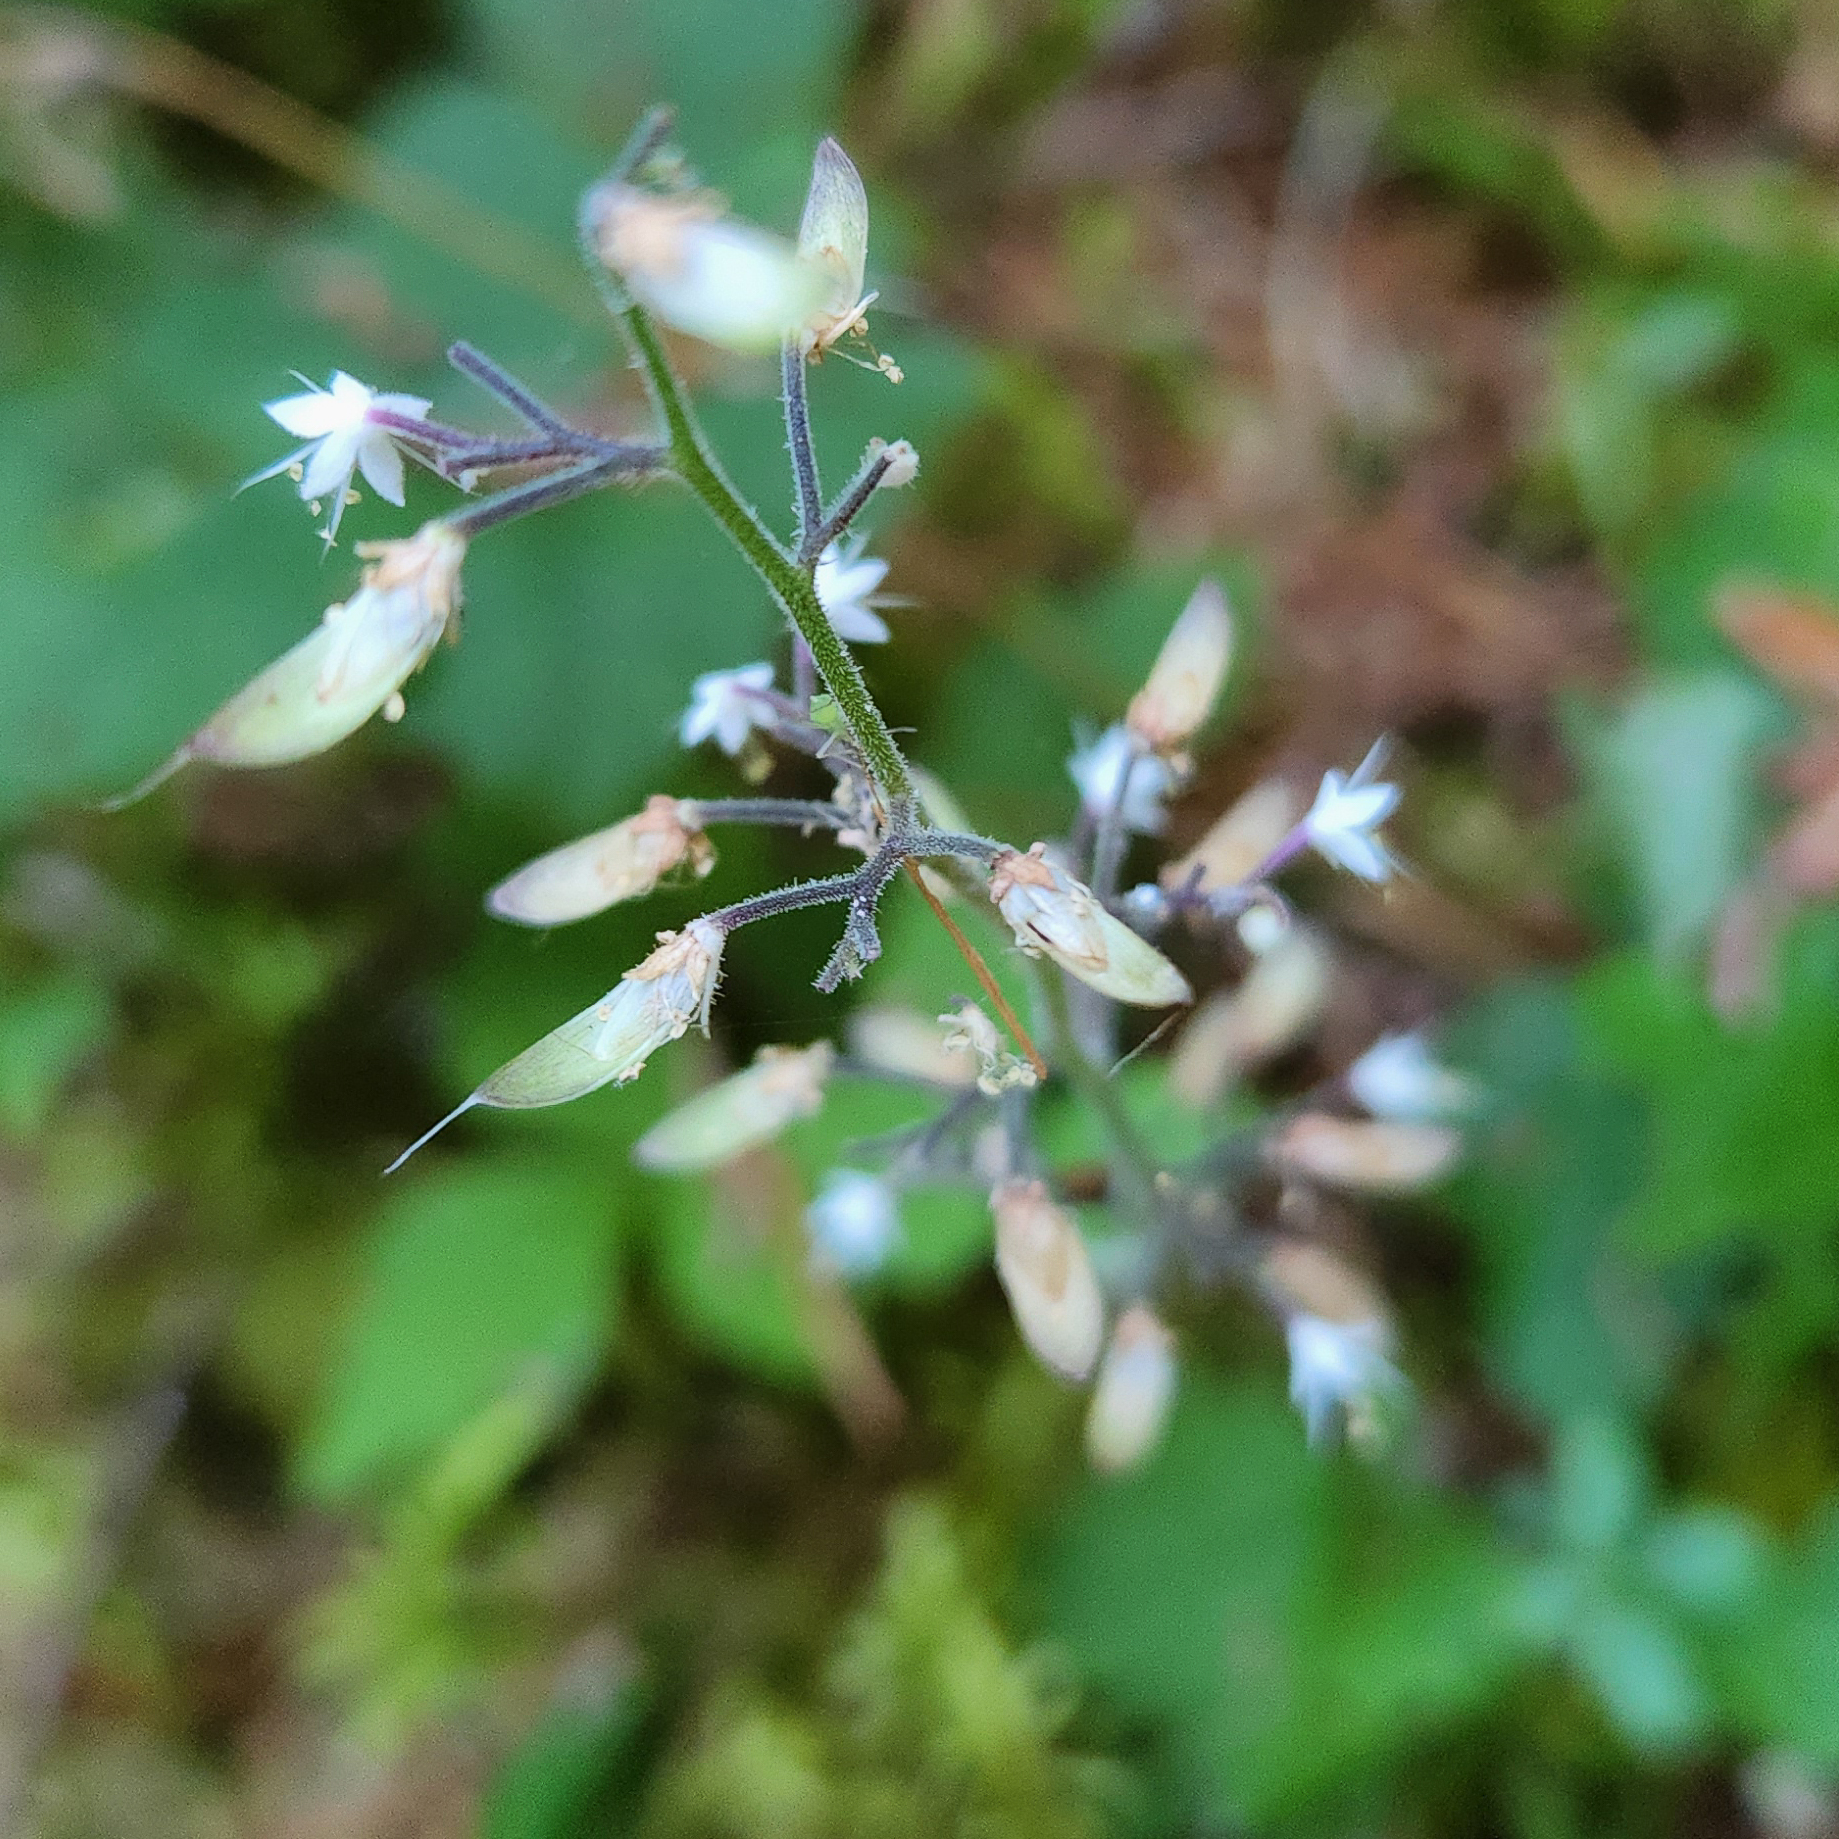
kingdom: Plantae
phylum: Tracheophyta
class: Magnoliopsida
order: Saxifragales
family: Saxifragaceae
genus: Tiarella
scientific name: Tiarella trifoliata
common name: Sugar-scoop
